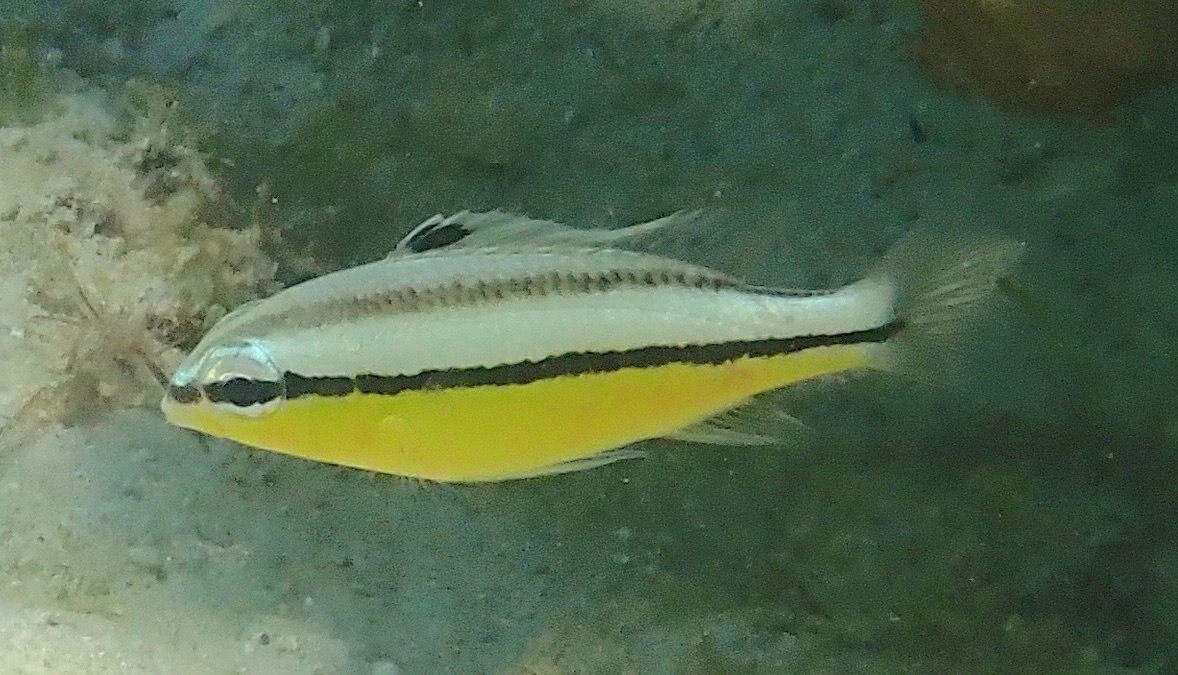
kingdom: Animalia
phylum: Chordata
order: Perciformes
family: Nemipteridae
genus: Scolopsis
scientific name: Scolopsis margaritifera
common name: Pearly monocle bream
